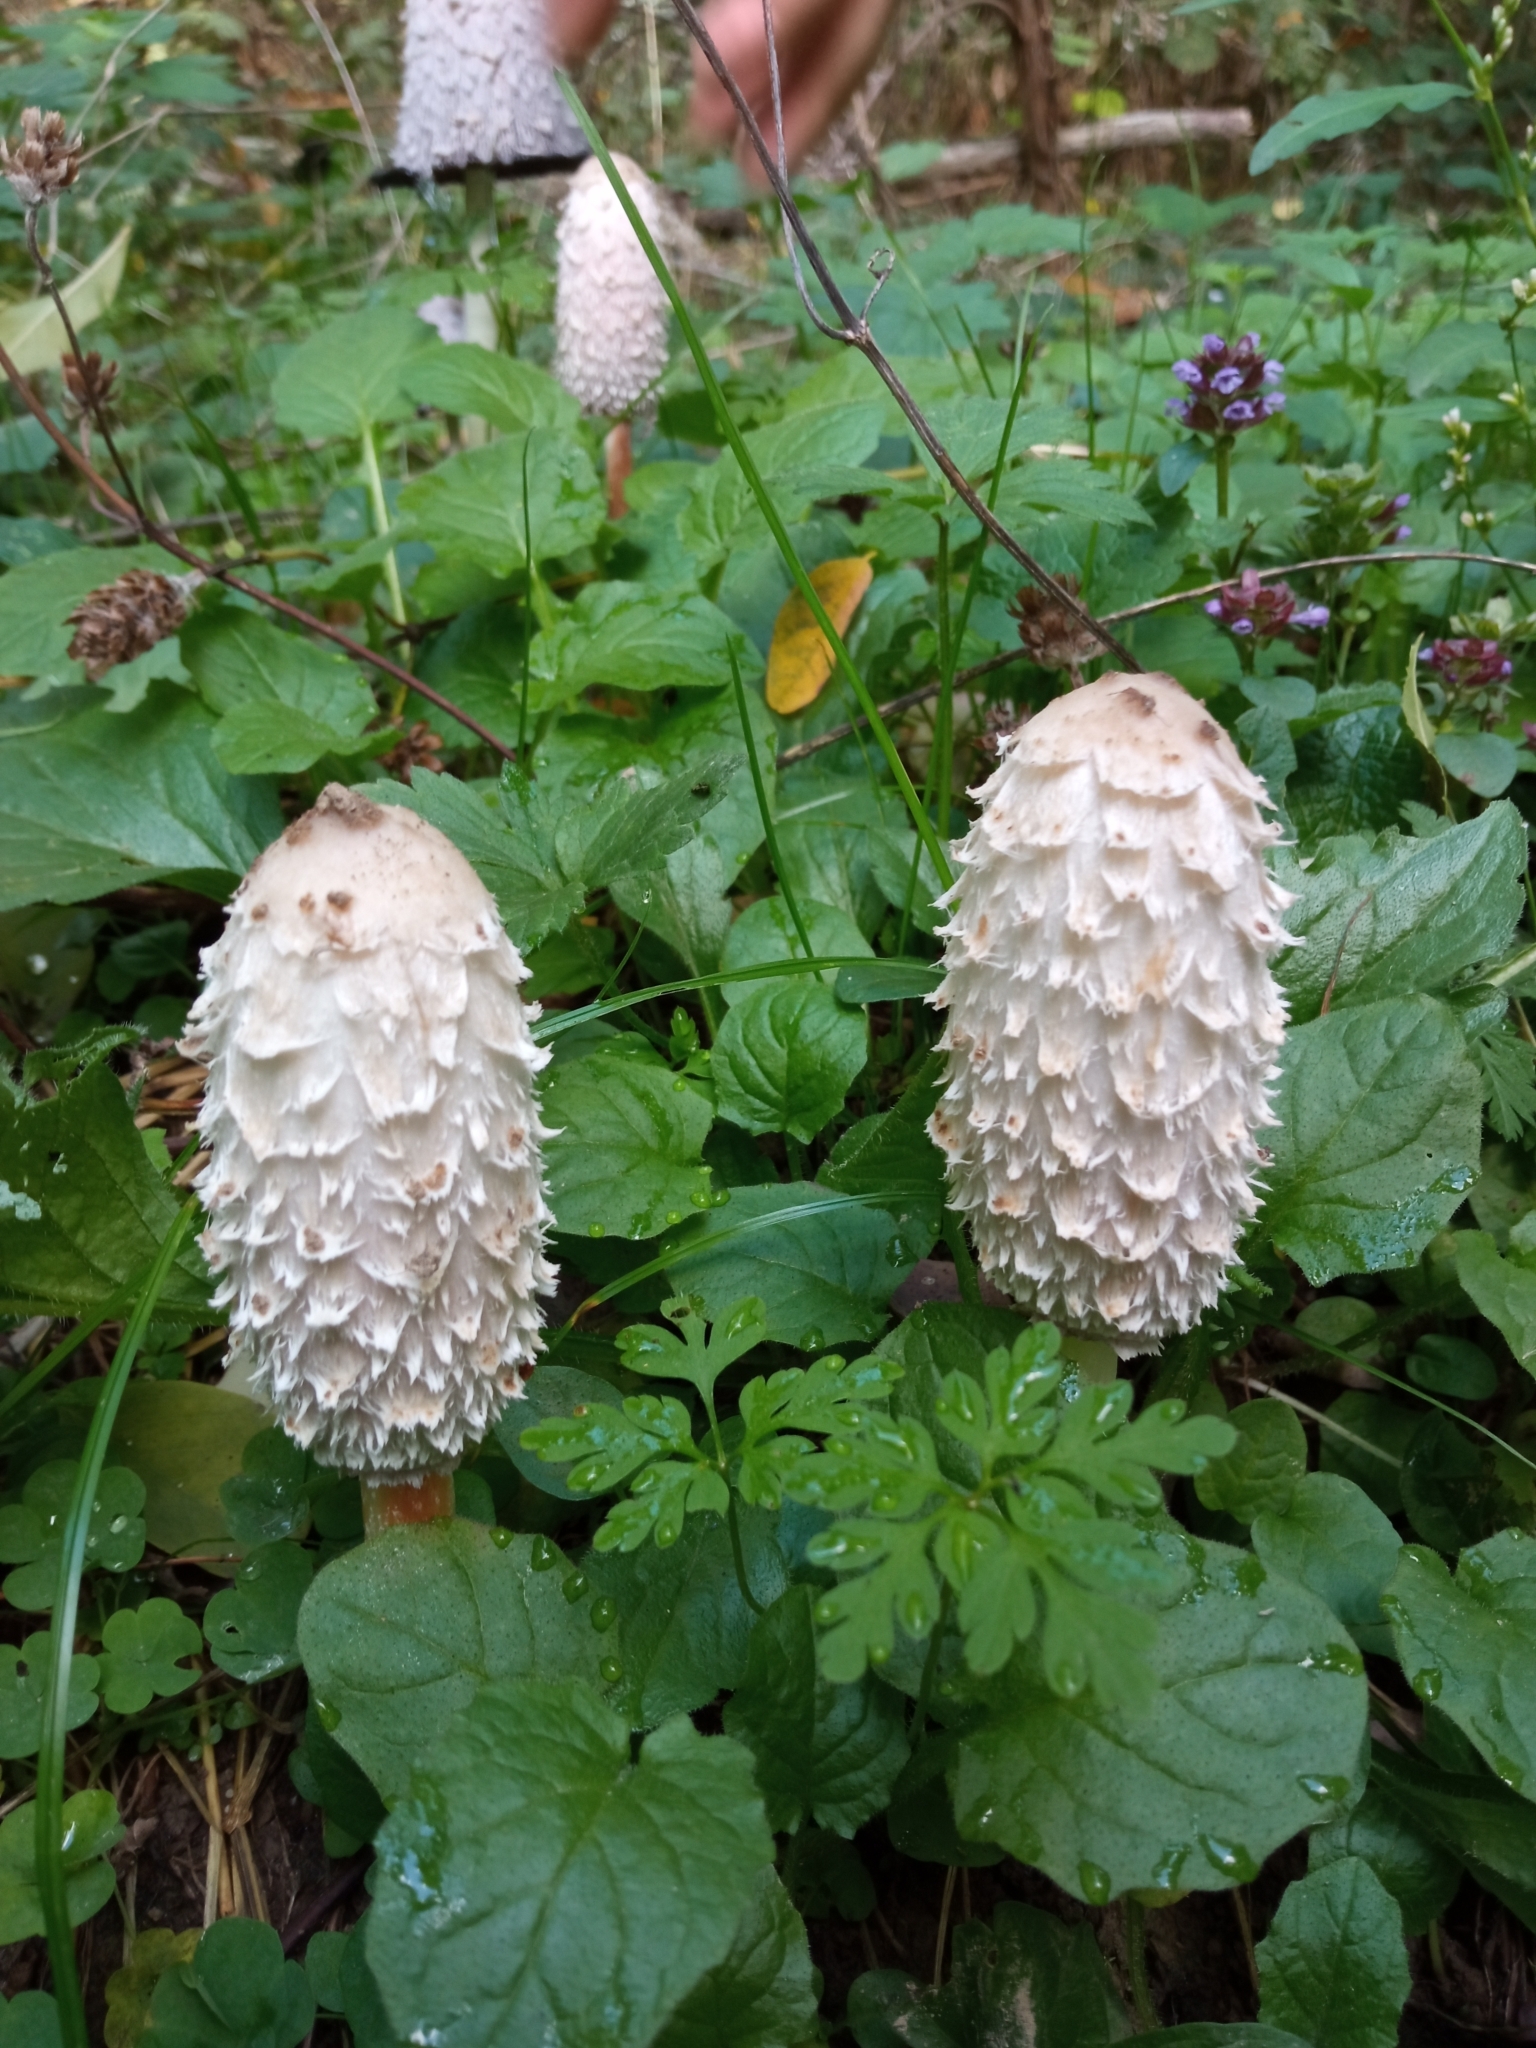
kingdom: Fungi
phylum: Basidiomycota
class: Agaricomycetes
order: Agaricales
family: Agaricaceae
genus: Coprinus
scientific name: Coprinus comatus
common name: Lawyer's wig
